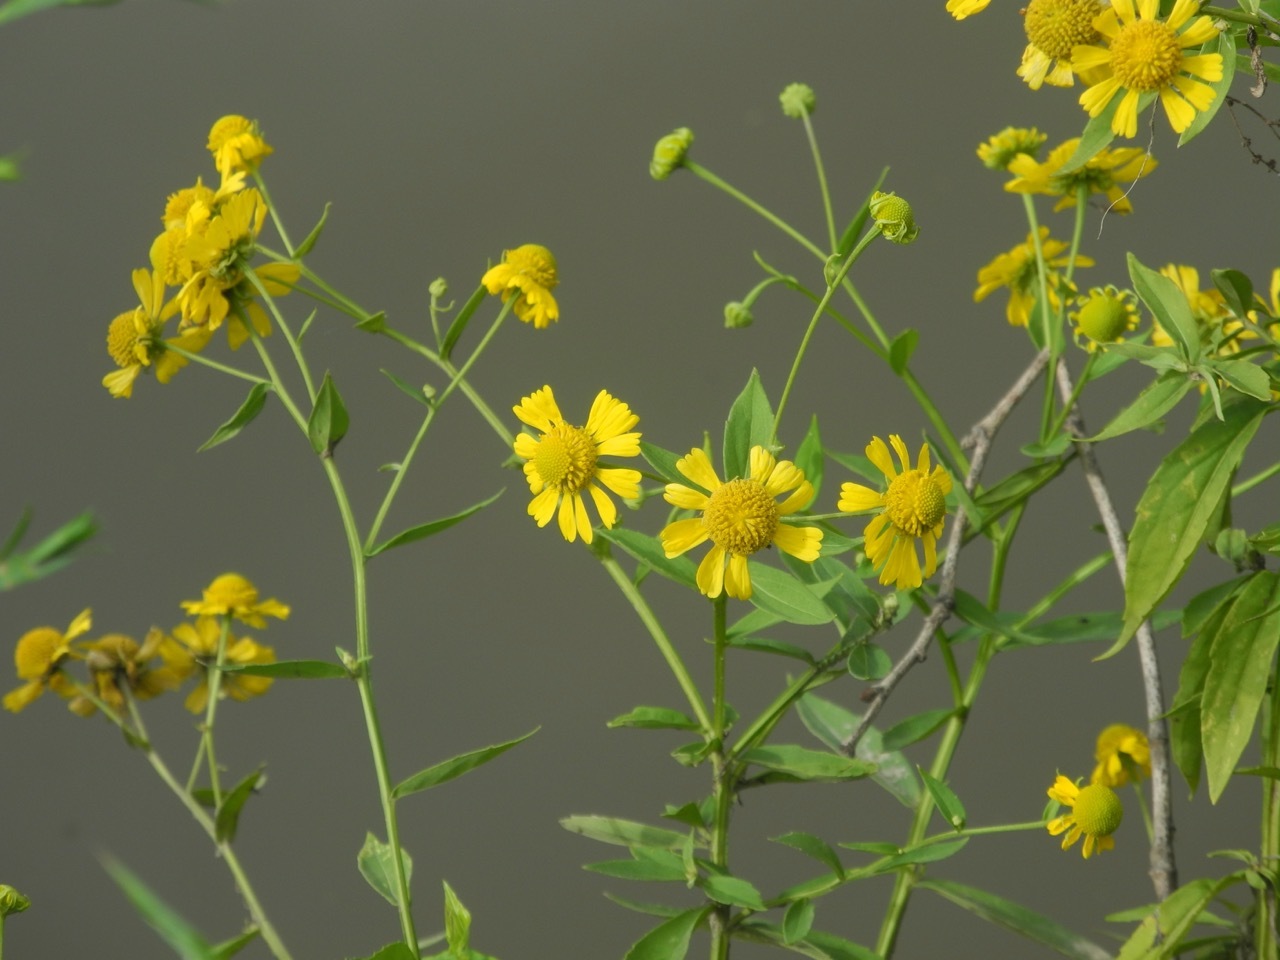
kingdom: Plantae
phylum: Tracheophyta
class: Magnoliopsida
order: Asterales
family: Asteraceae
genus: Helenium
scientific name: Helenium autumnale
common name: Sneezeweed
